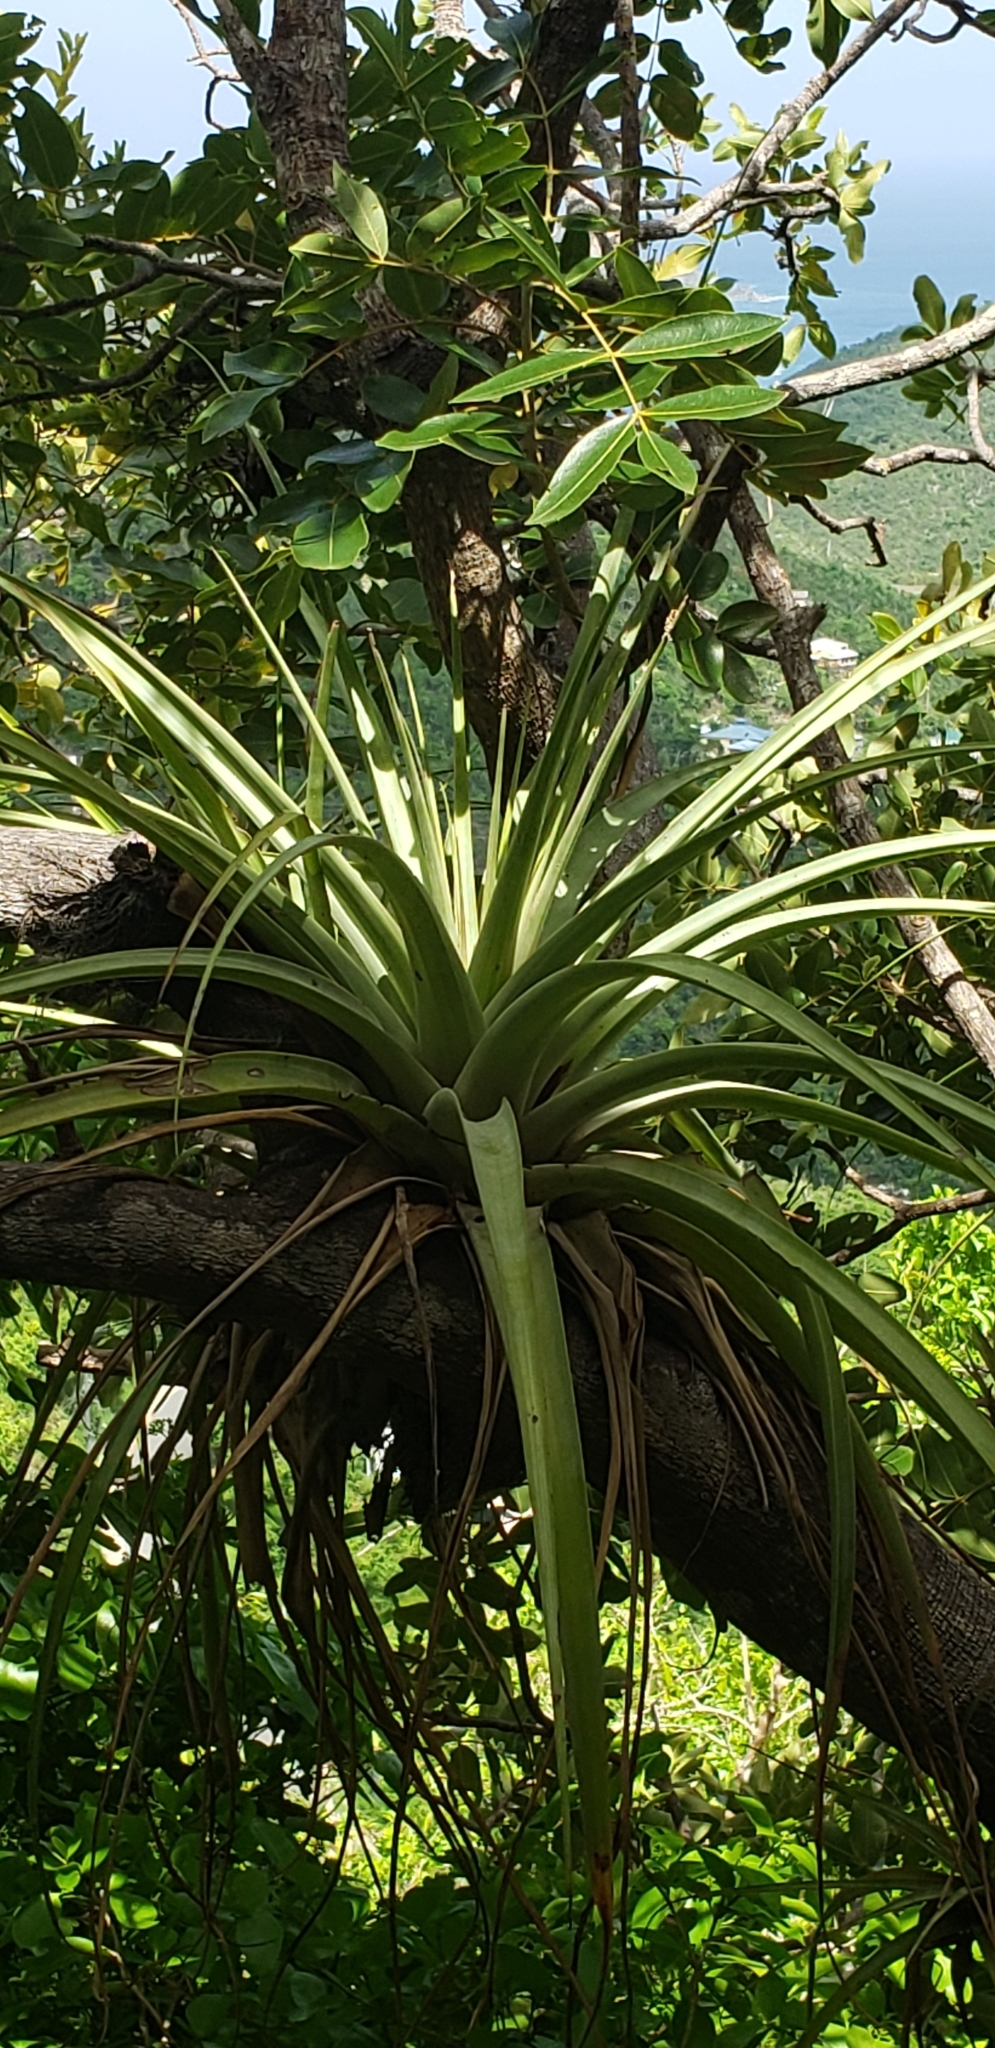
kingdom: Plantae
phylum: Tracheophyta
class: Liliopsida
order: Poales
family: Bromeliaceae
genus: Tillandsia
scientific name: Tillandsia utriculata
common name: Wild pine
